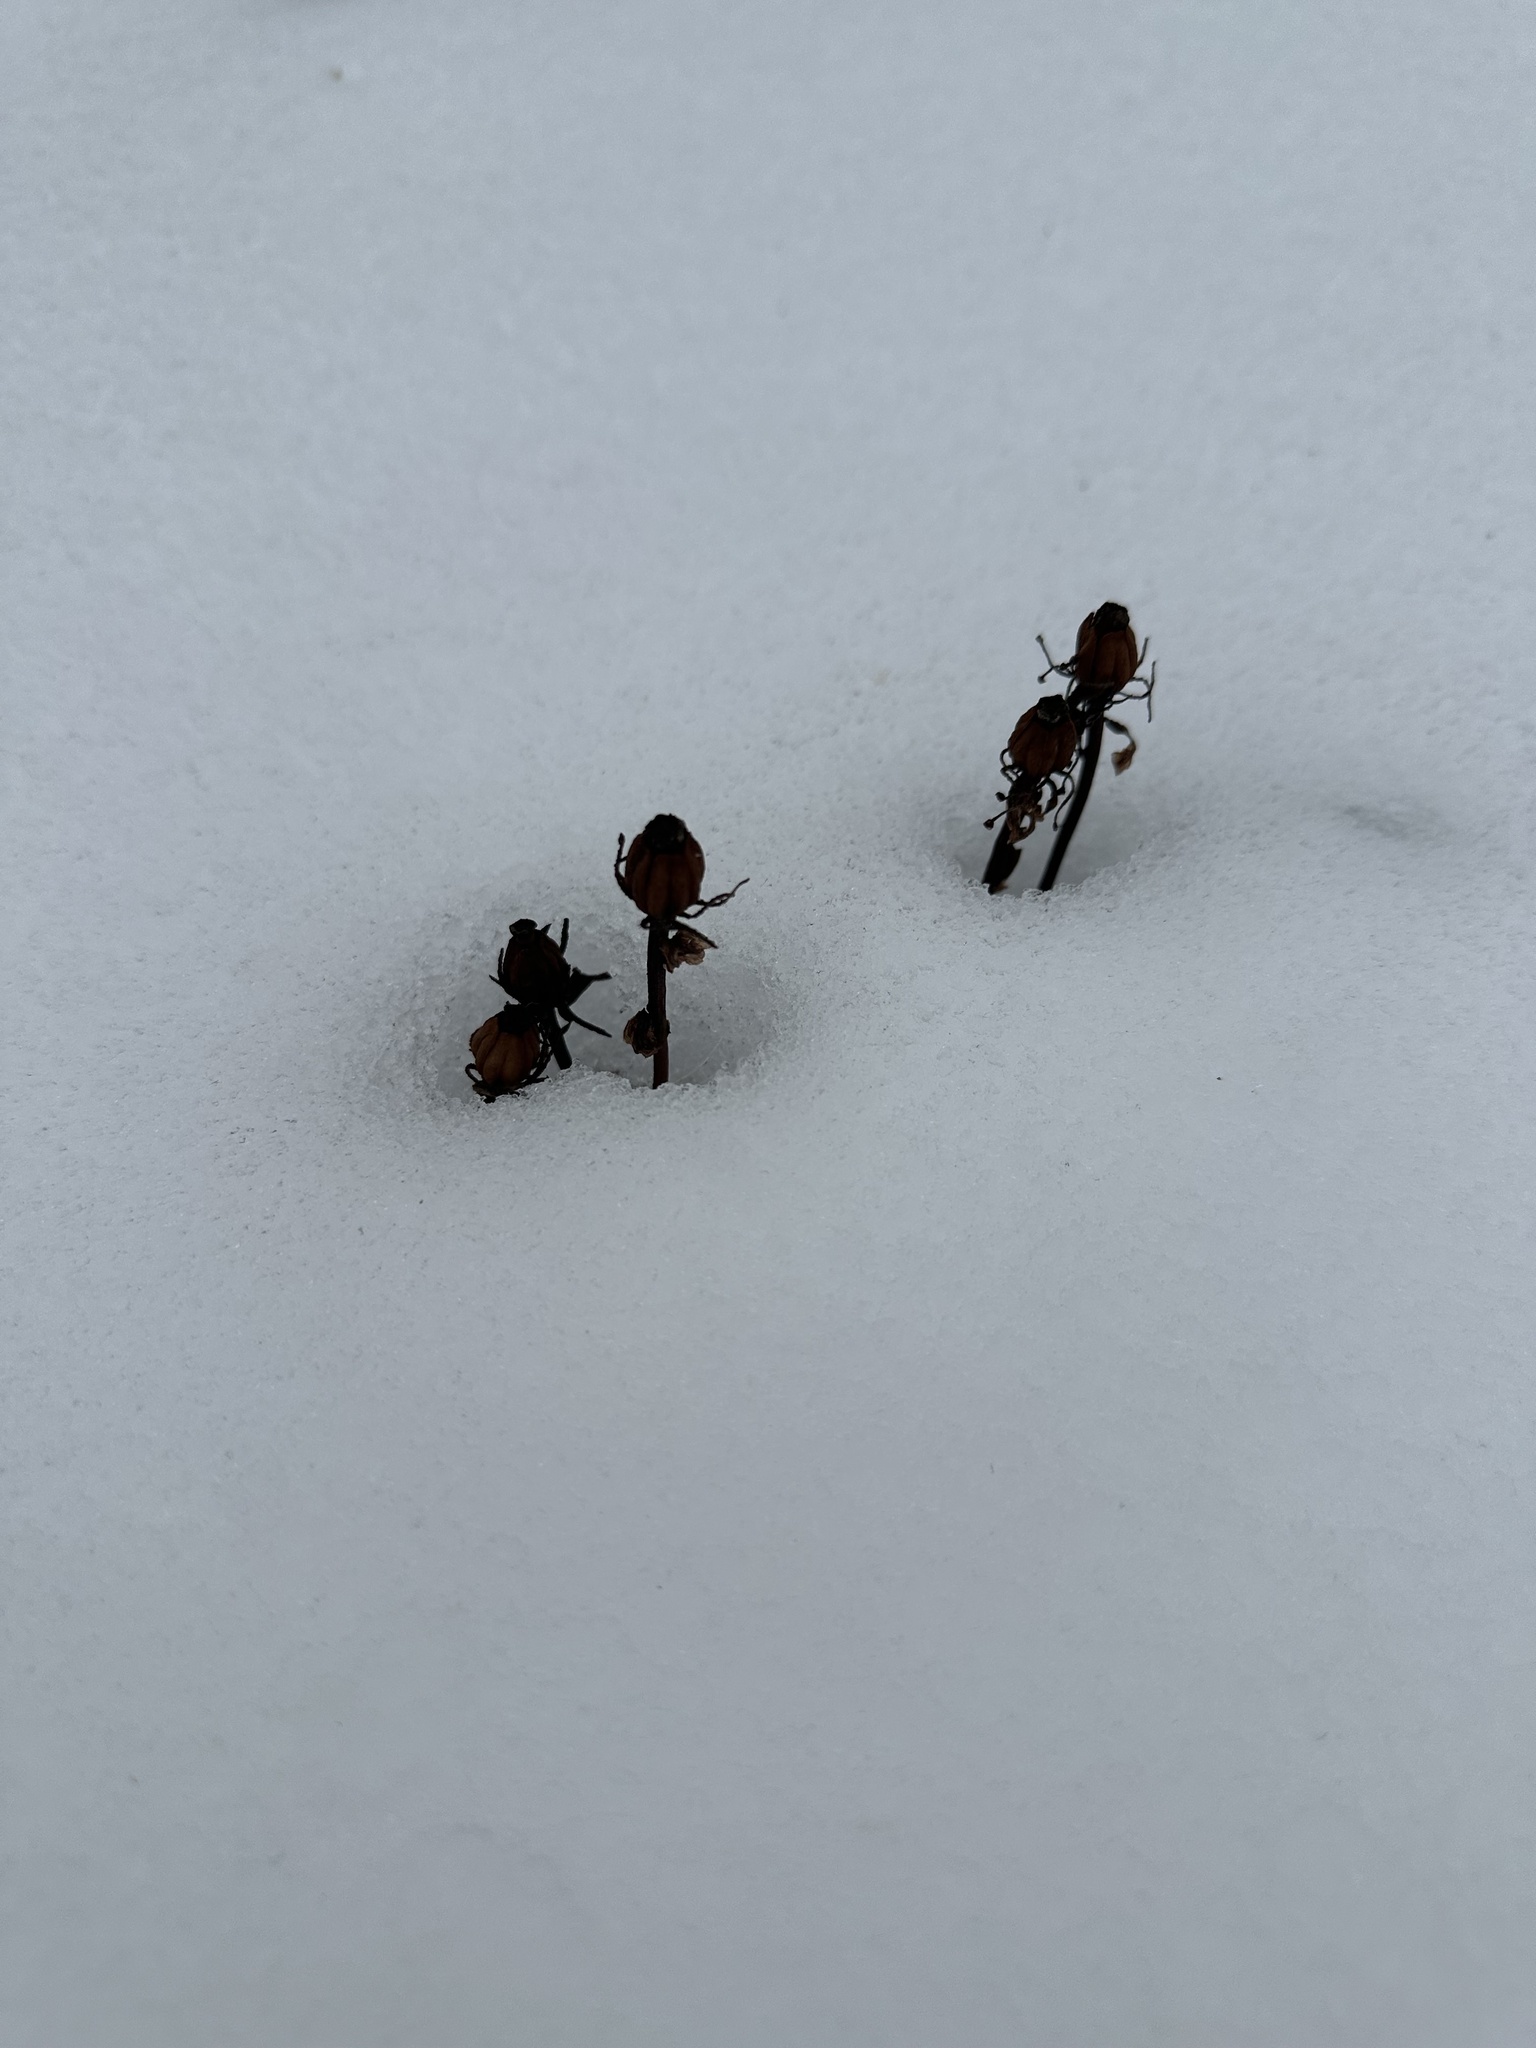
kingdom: Plantae
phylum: Tracheophyta
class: Magnoliopsida
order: Ericales
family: Ericaceae
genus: Monotropa
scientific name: Monotropa uniflora
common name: Convulsion root
